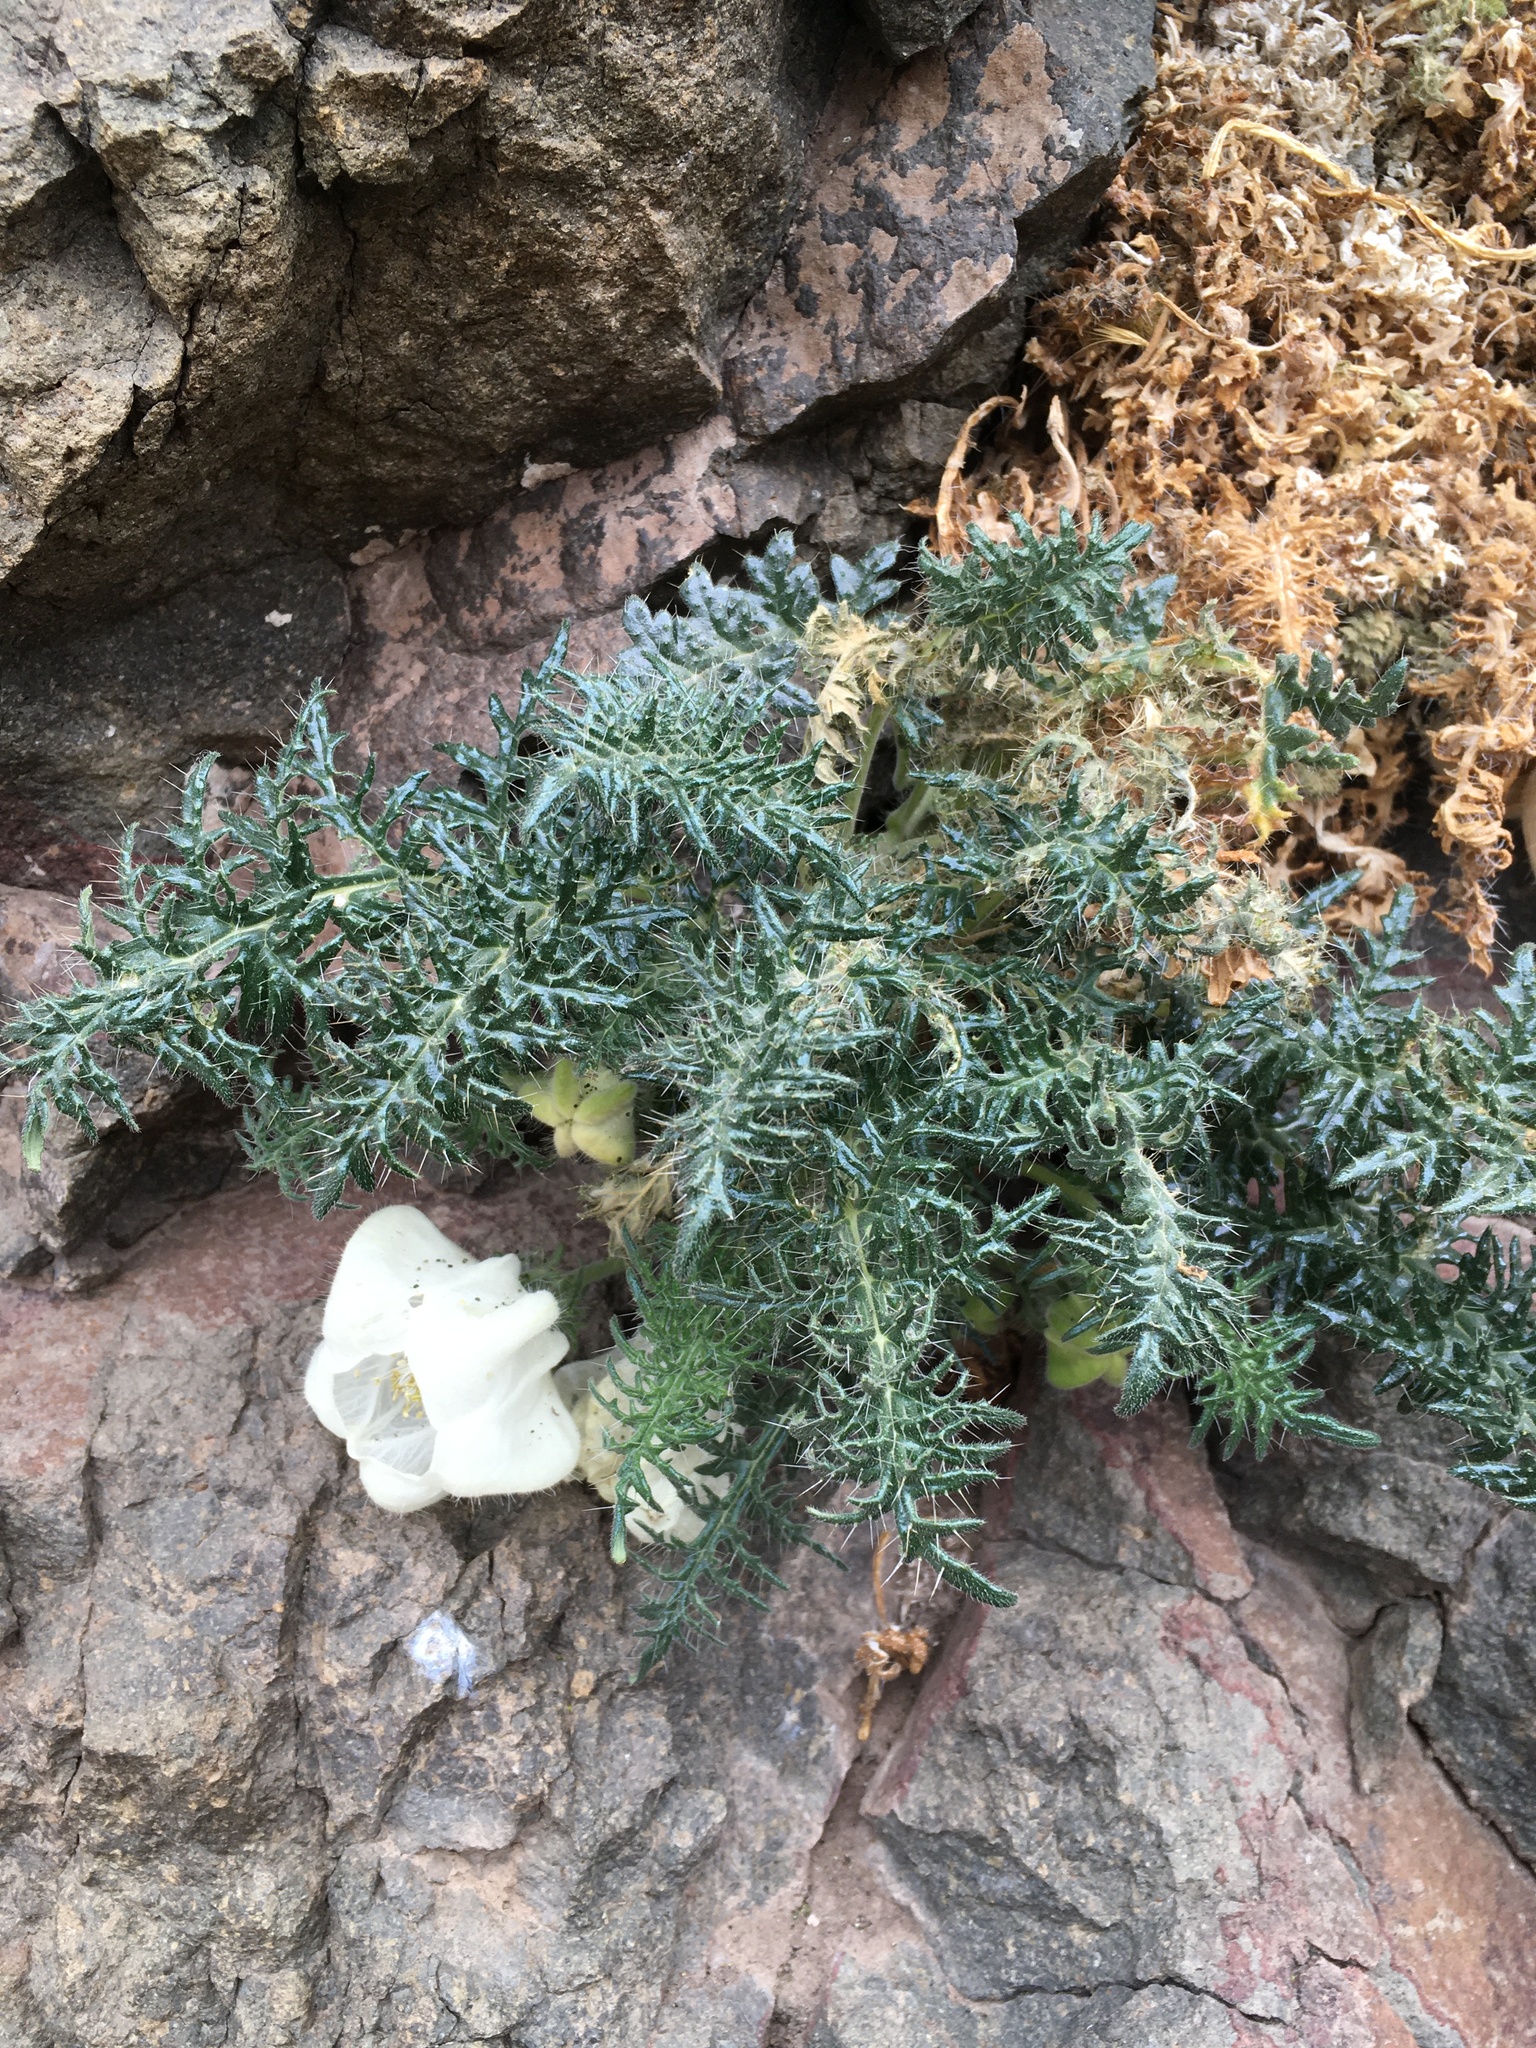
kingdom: Plantae
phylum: Tracheophyta
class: Magnoliopsida
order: Cornales
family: Loasaceae
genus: Caiophora
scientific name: Caiophora coronata
